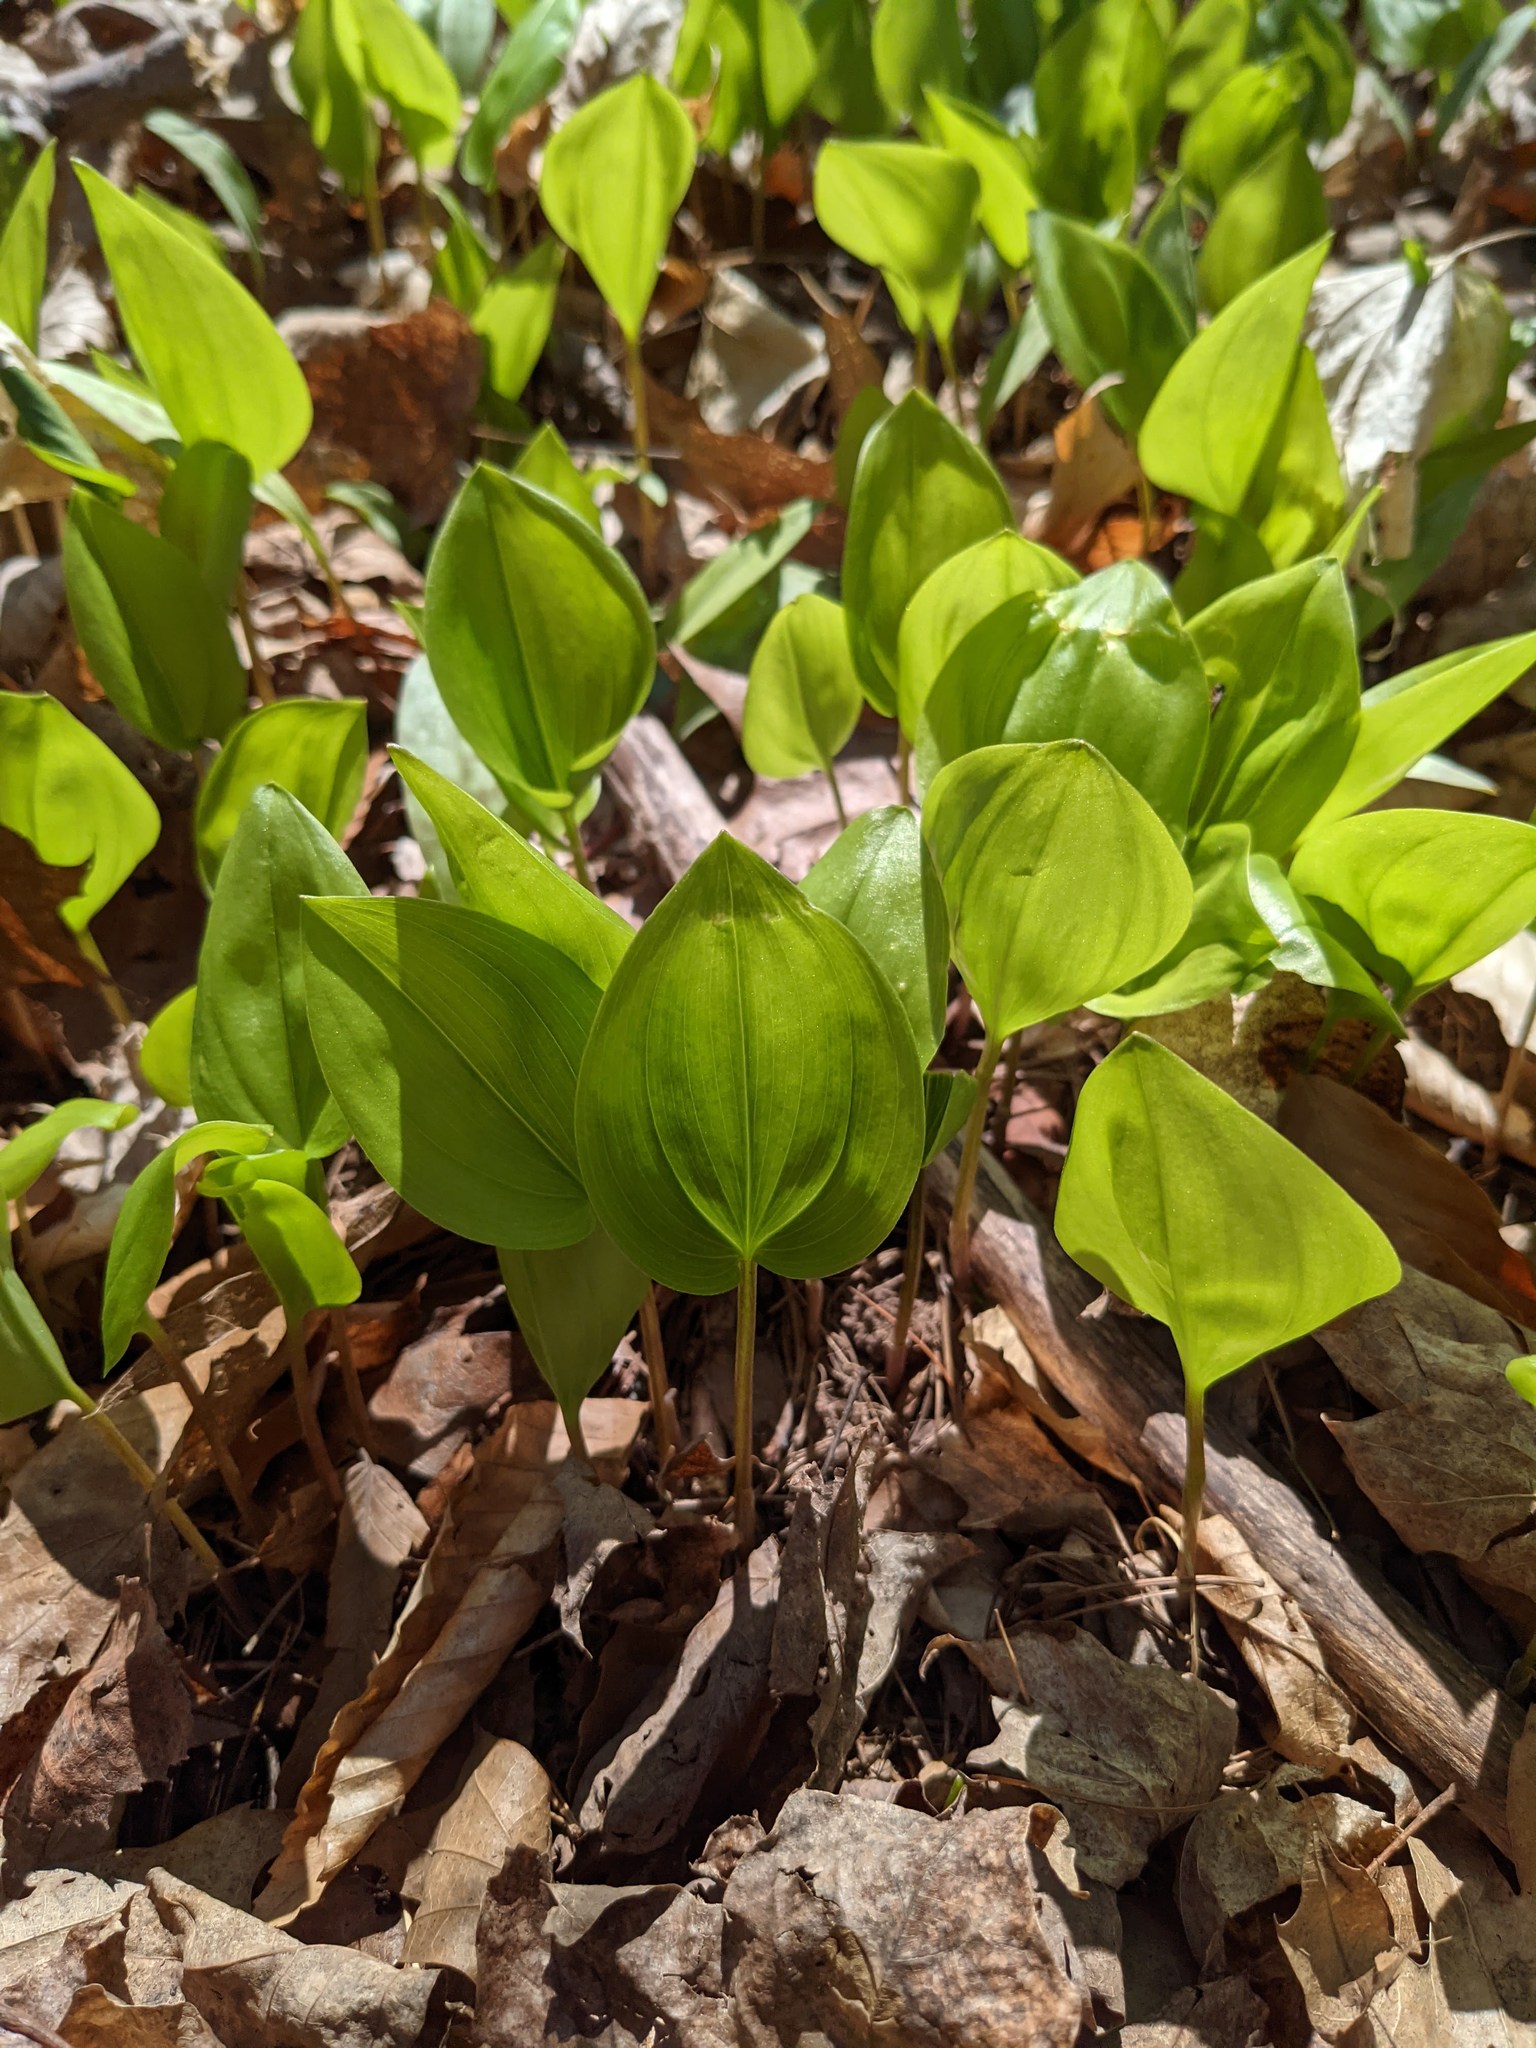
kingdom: Plantae
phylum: Tracheophyta
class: Liliopsida
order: Asparagales
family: Asparagaceae
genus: Maianthemum
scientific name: Maianthemum canadense
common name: False lily-of-the-valley
